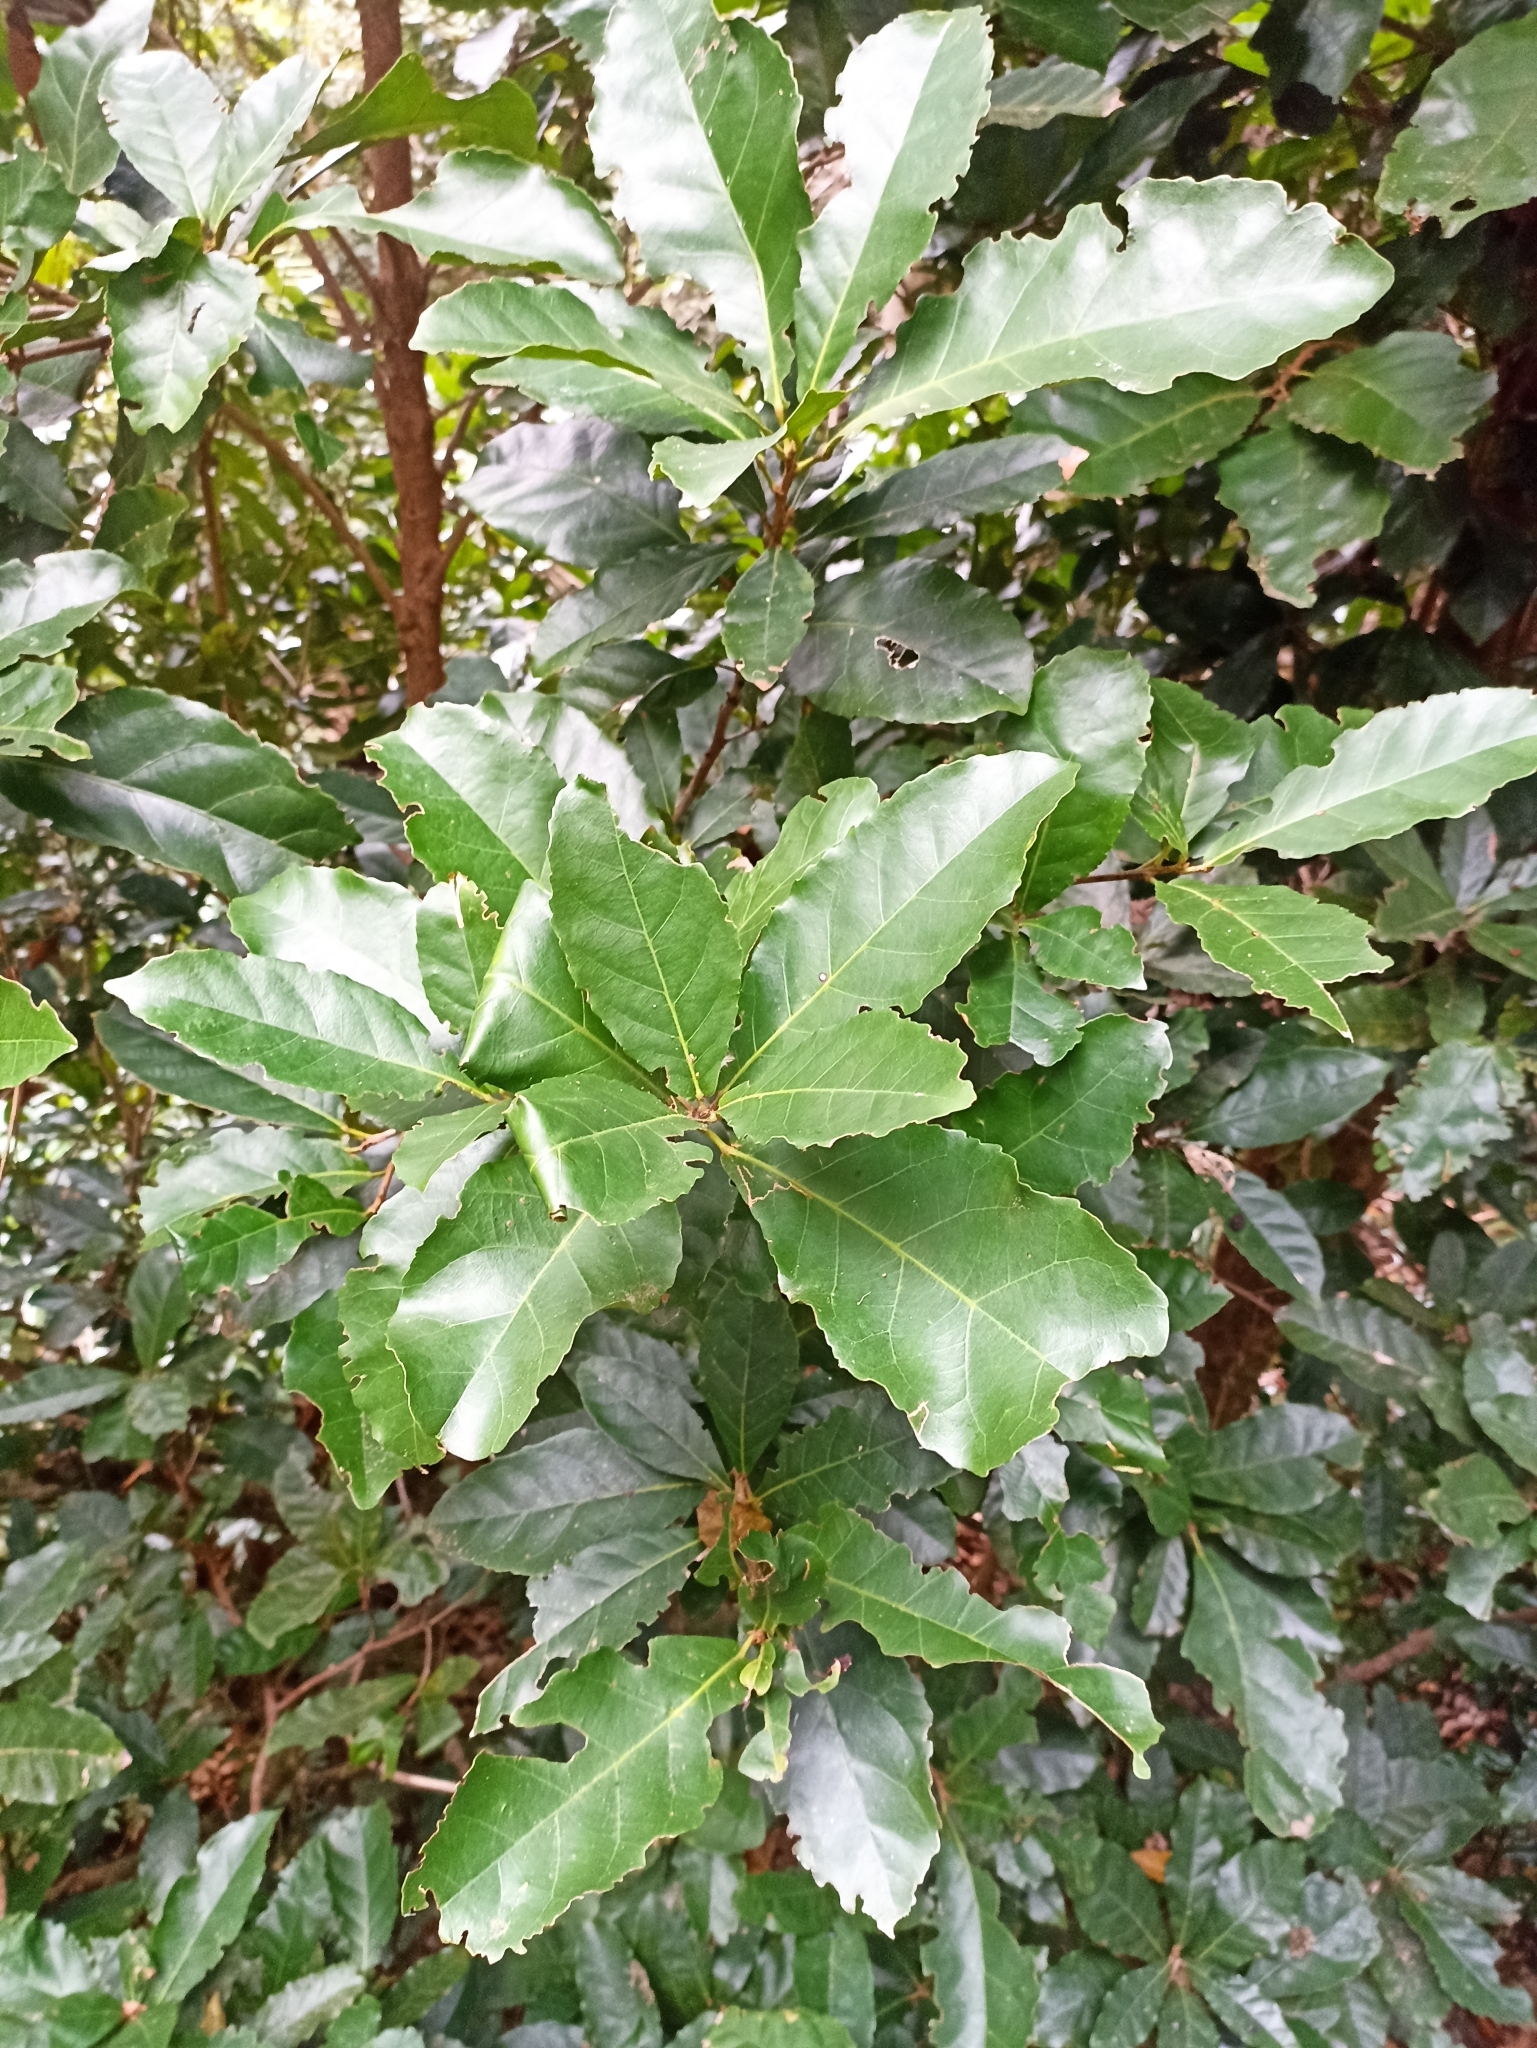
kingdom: Plantae
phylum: Tracheophyta
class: Magnoliopsida
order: Oxalidales
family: Elaeocarpaceae
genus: Sloanea
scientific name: Sloanea australis
